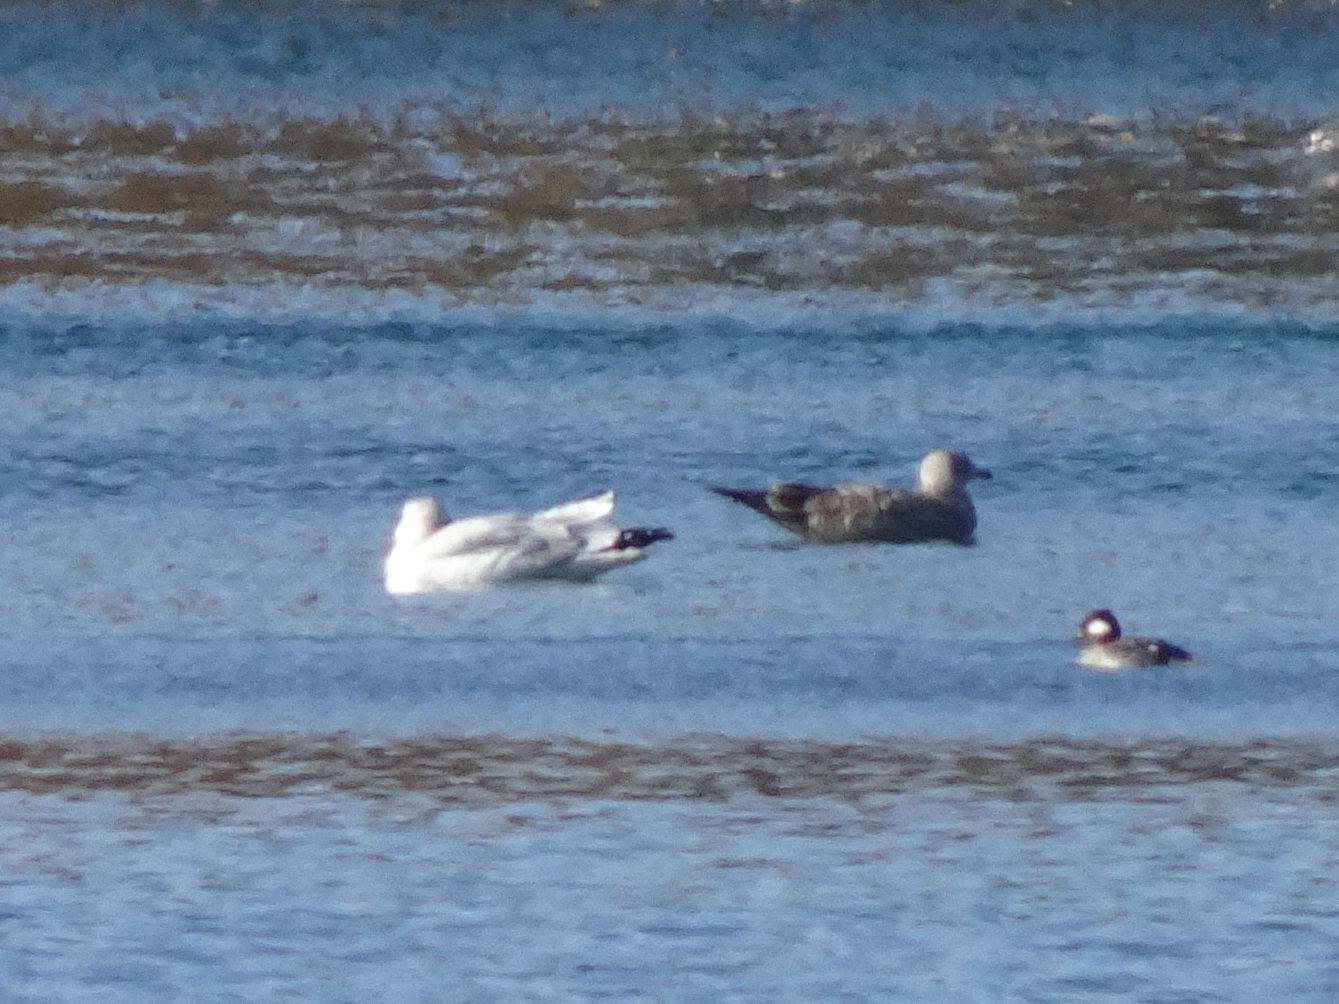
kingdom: Animalia
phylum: Chordata
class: Aves
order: Charadriiformes
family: Laridae
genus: Larus
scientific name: Larus argentatus
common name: Herring gull
